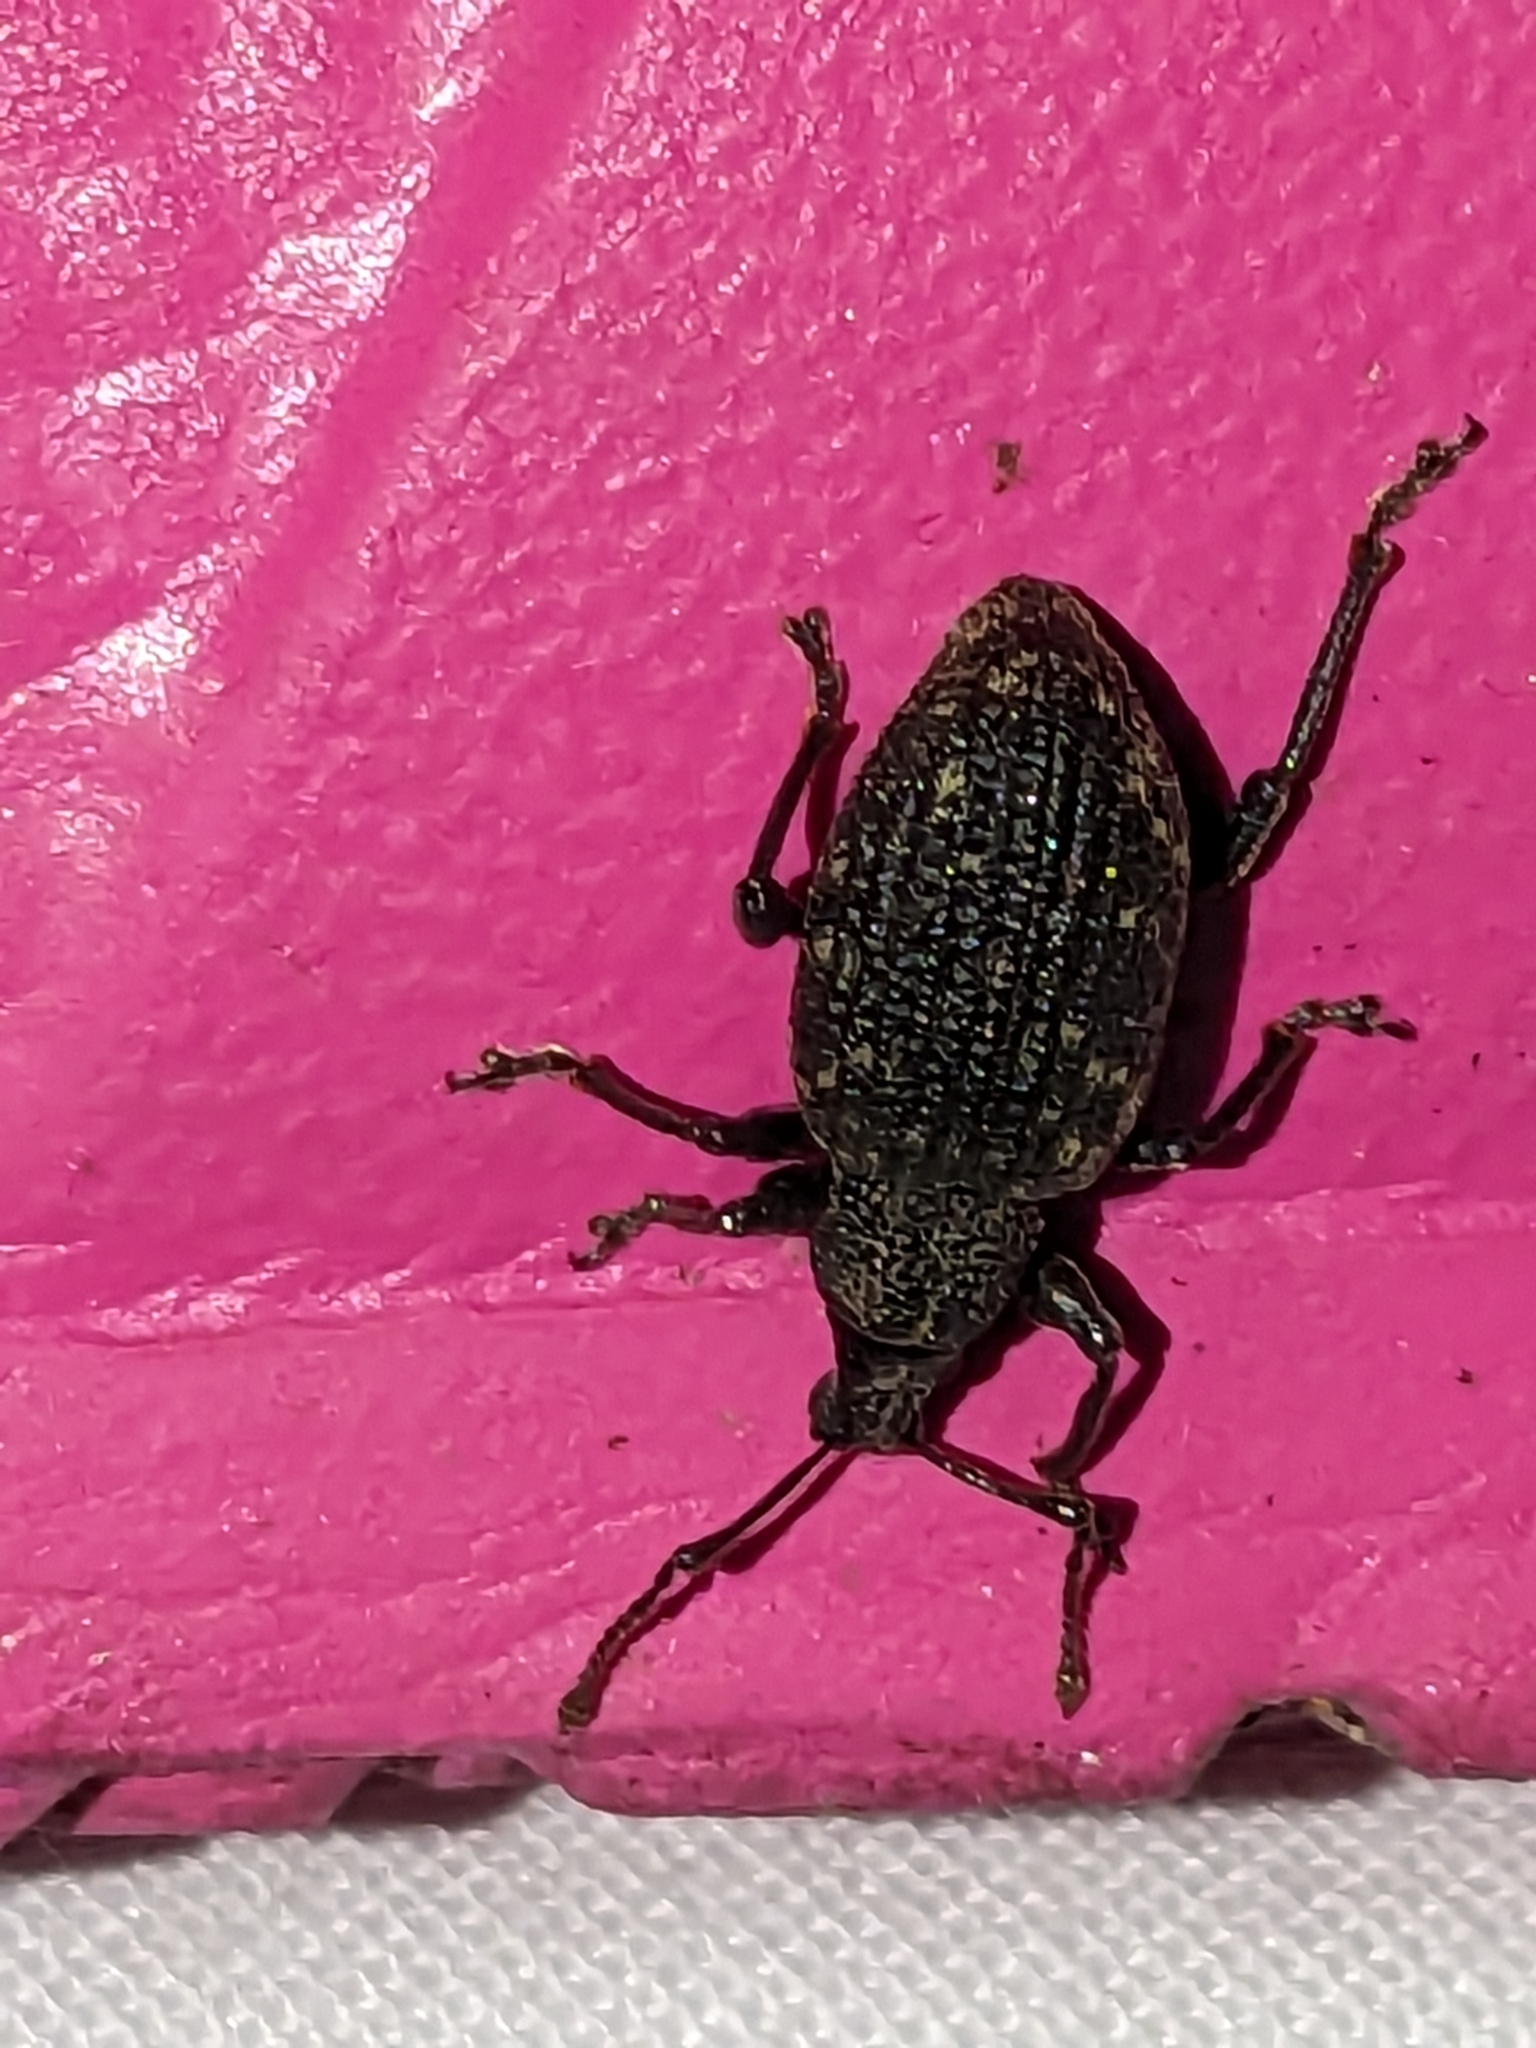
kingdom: Animalia
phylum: Arthropoda
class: Insecta
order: Coleoptera
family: Curculionidae
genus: Otiorhynchus
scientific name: Otiorhynchus sulcatus
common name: Black vine weevil
